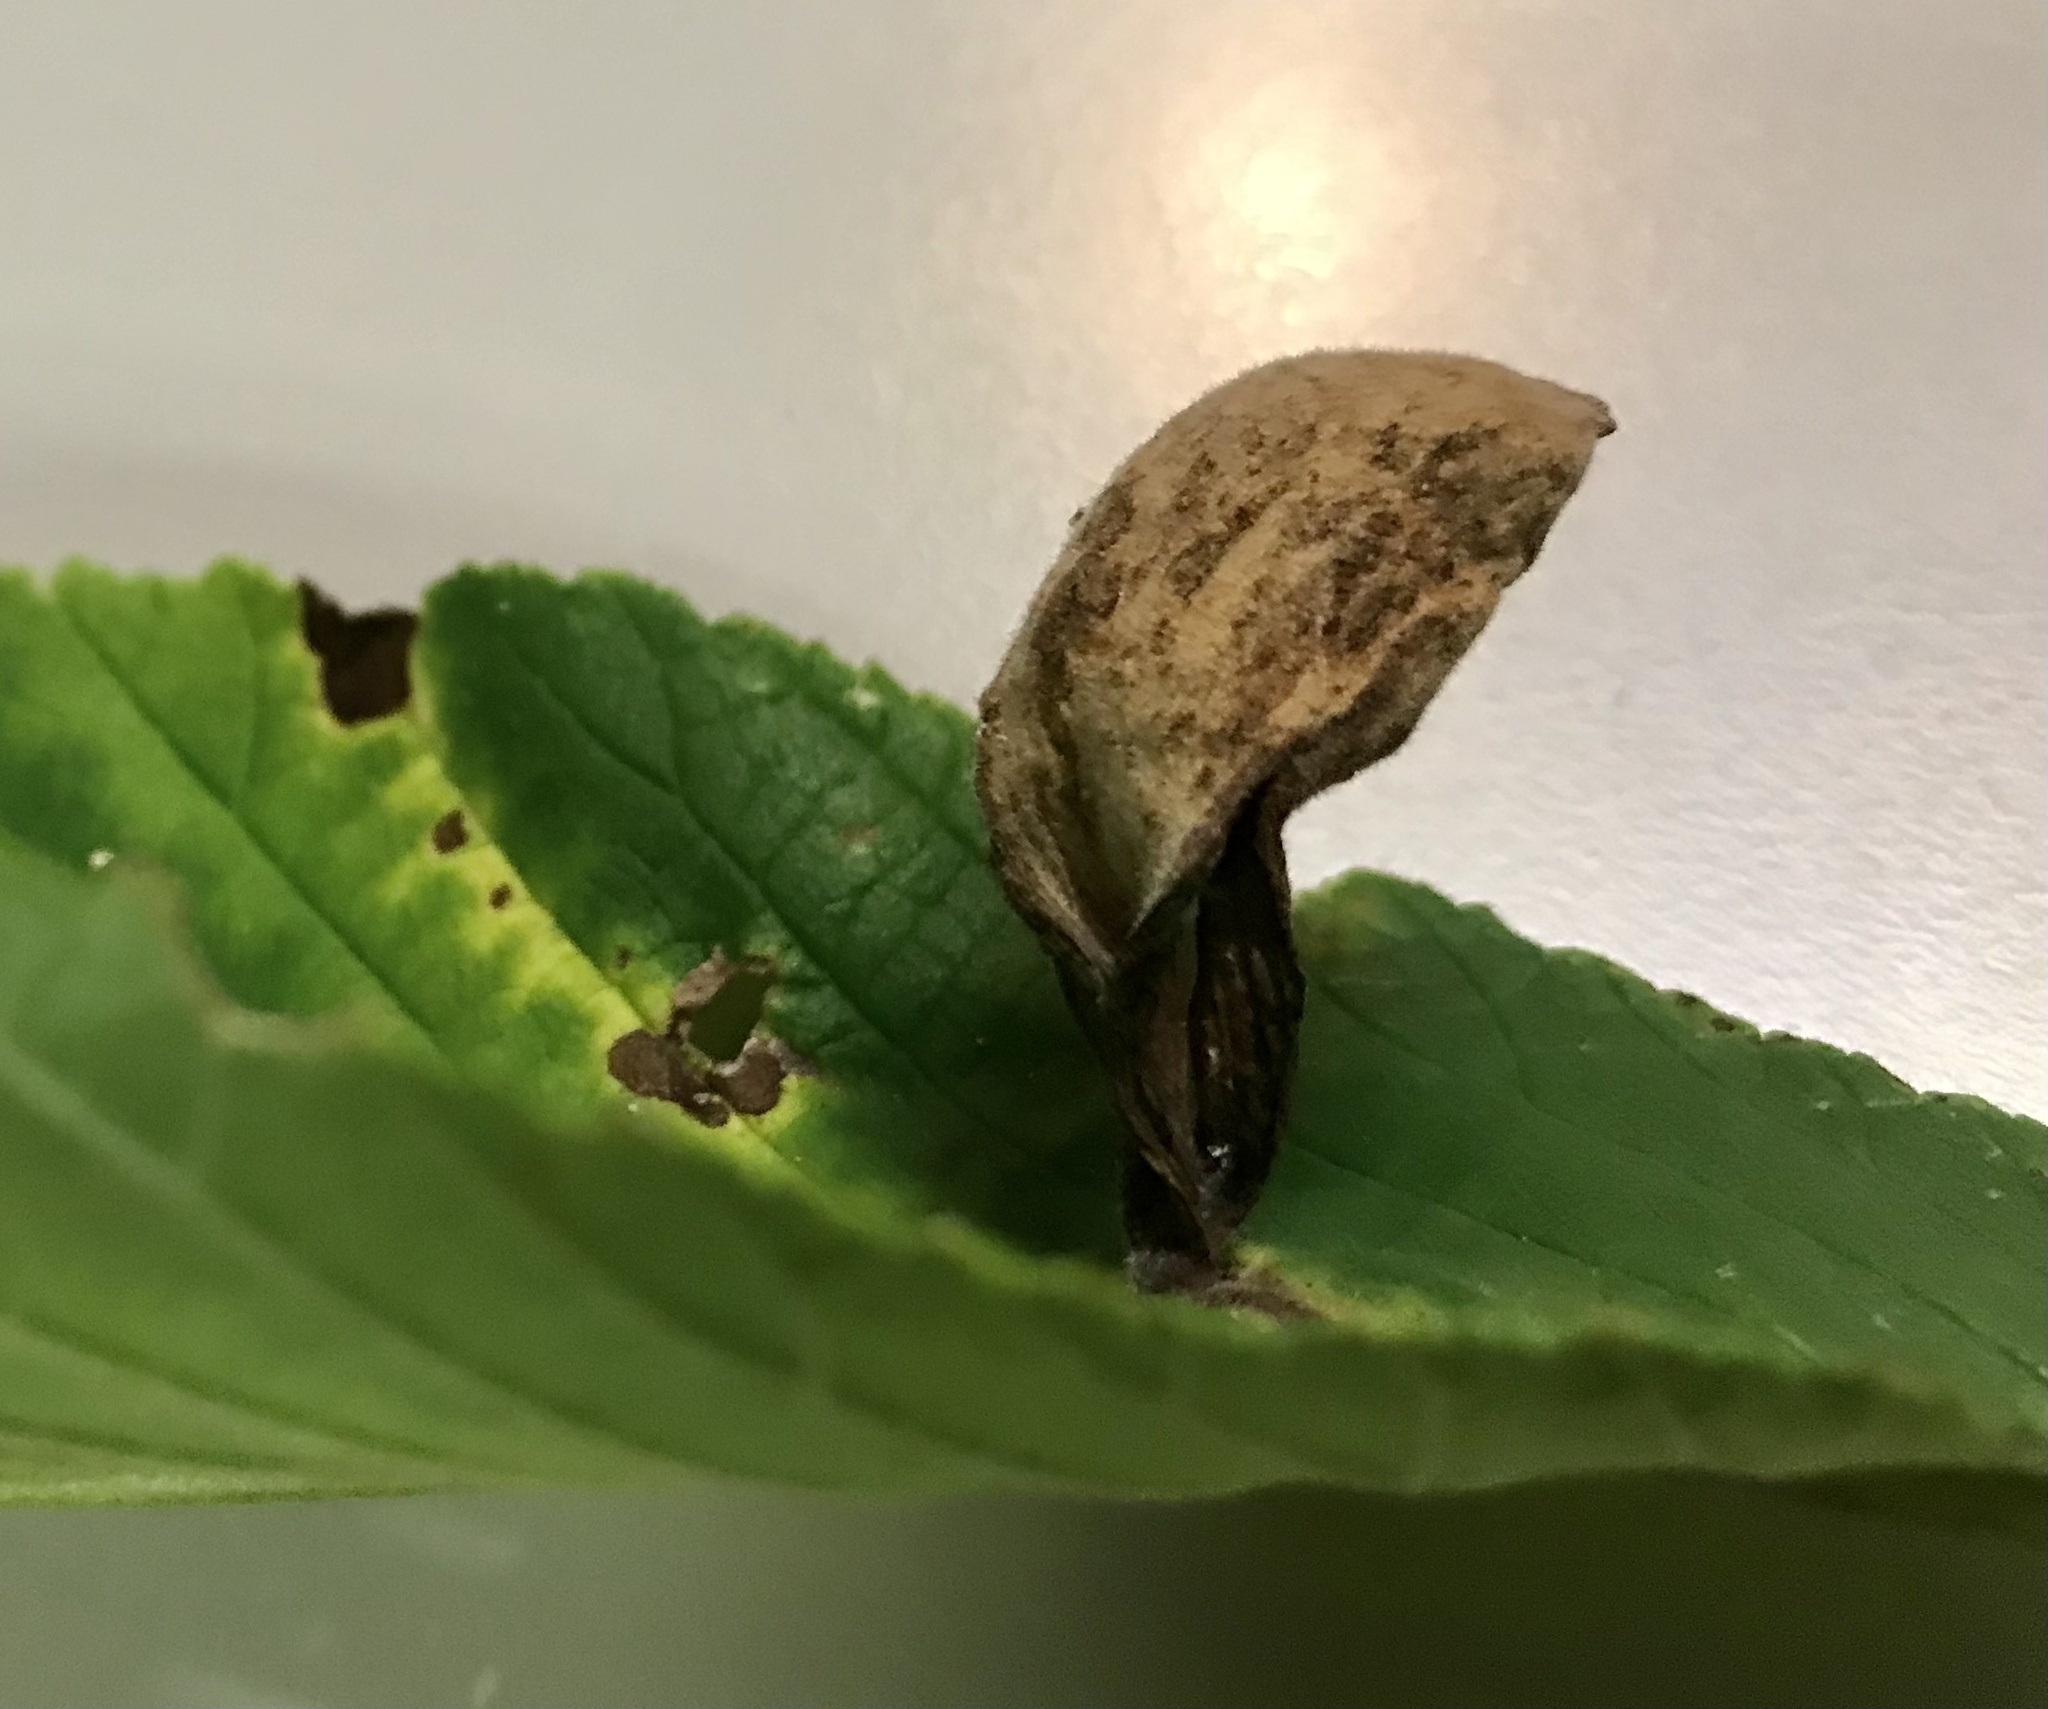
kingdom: Animalia
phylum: Arthropoda
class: Insecta
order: Hemiptera
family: Aphididae
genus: Kaltenbachiella
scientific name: Kaltenbachiella ulmifusa
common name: Elm pouchgall aphid
